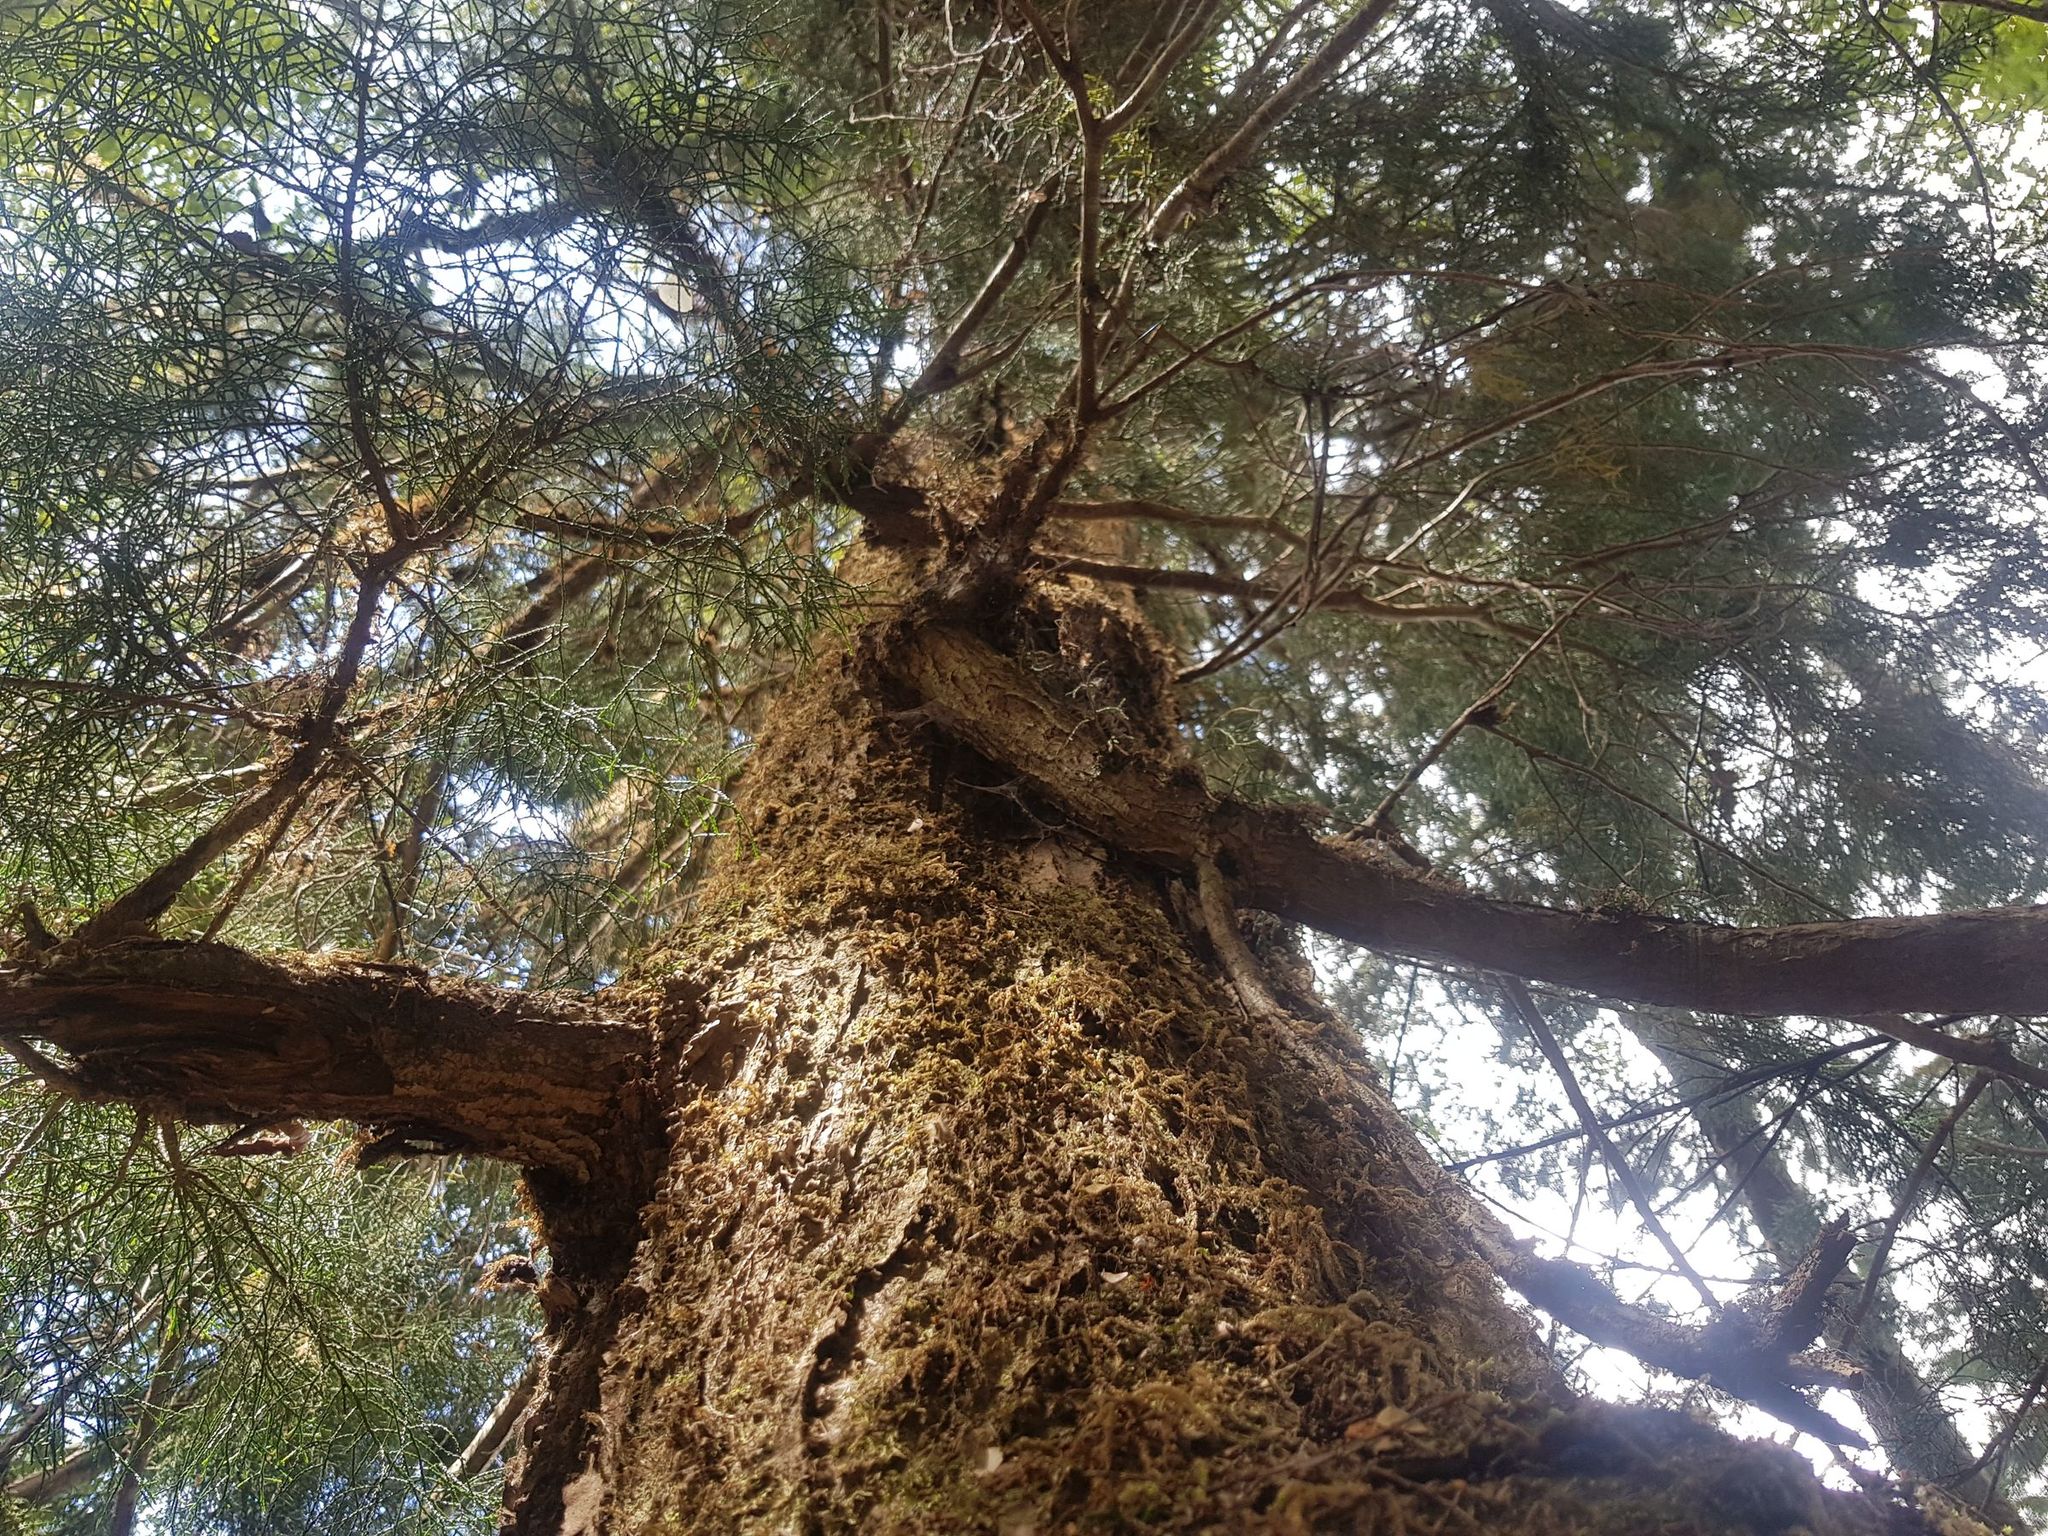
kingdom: Plantae
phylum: Tracheophyta
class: Pinopsida
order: Pinales
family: Podocarpaceae
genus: Lagarostrobos
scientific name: Lagarostrobos franklinii
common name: Huon pine
